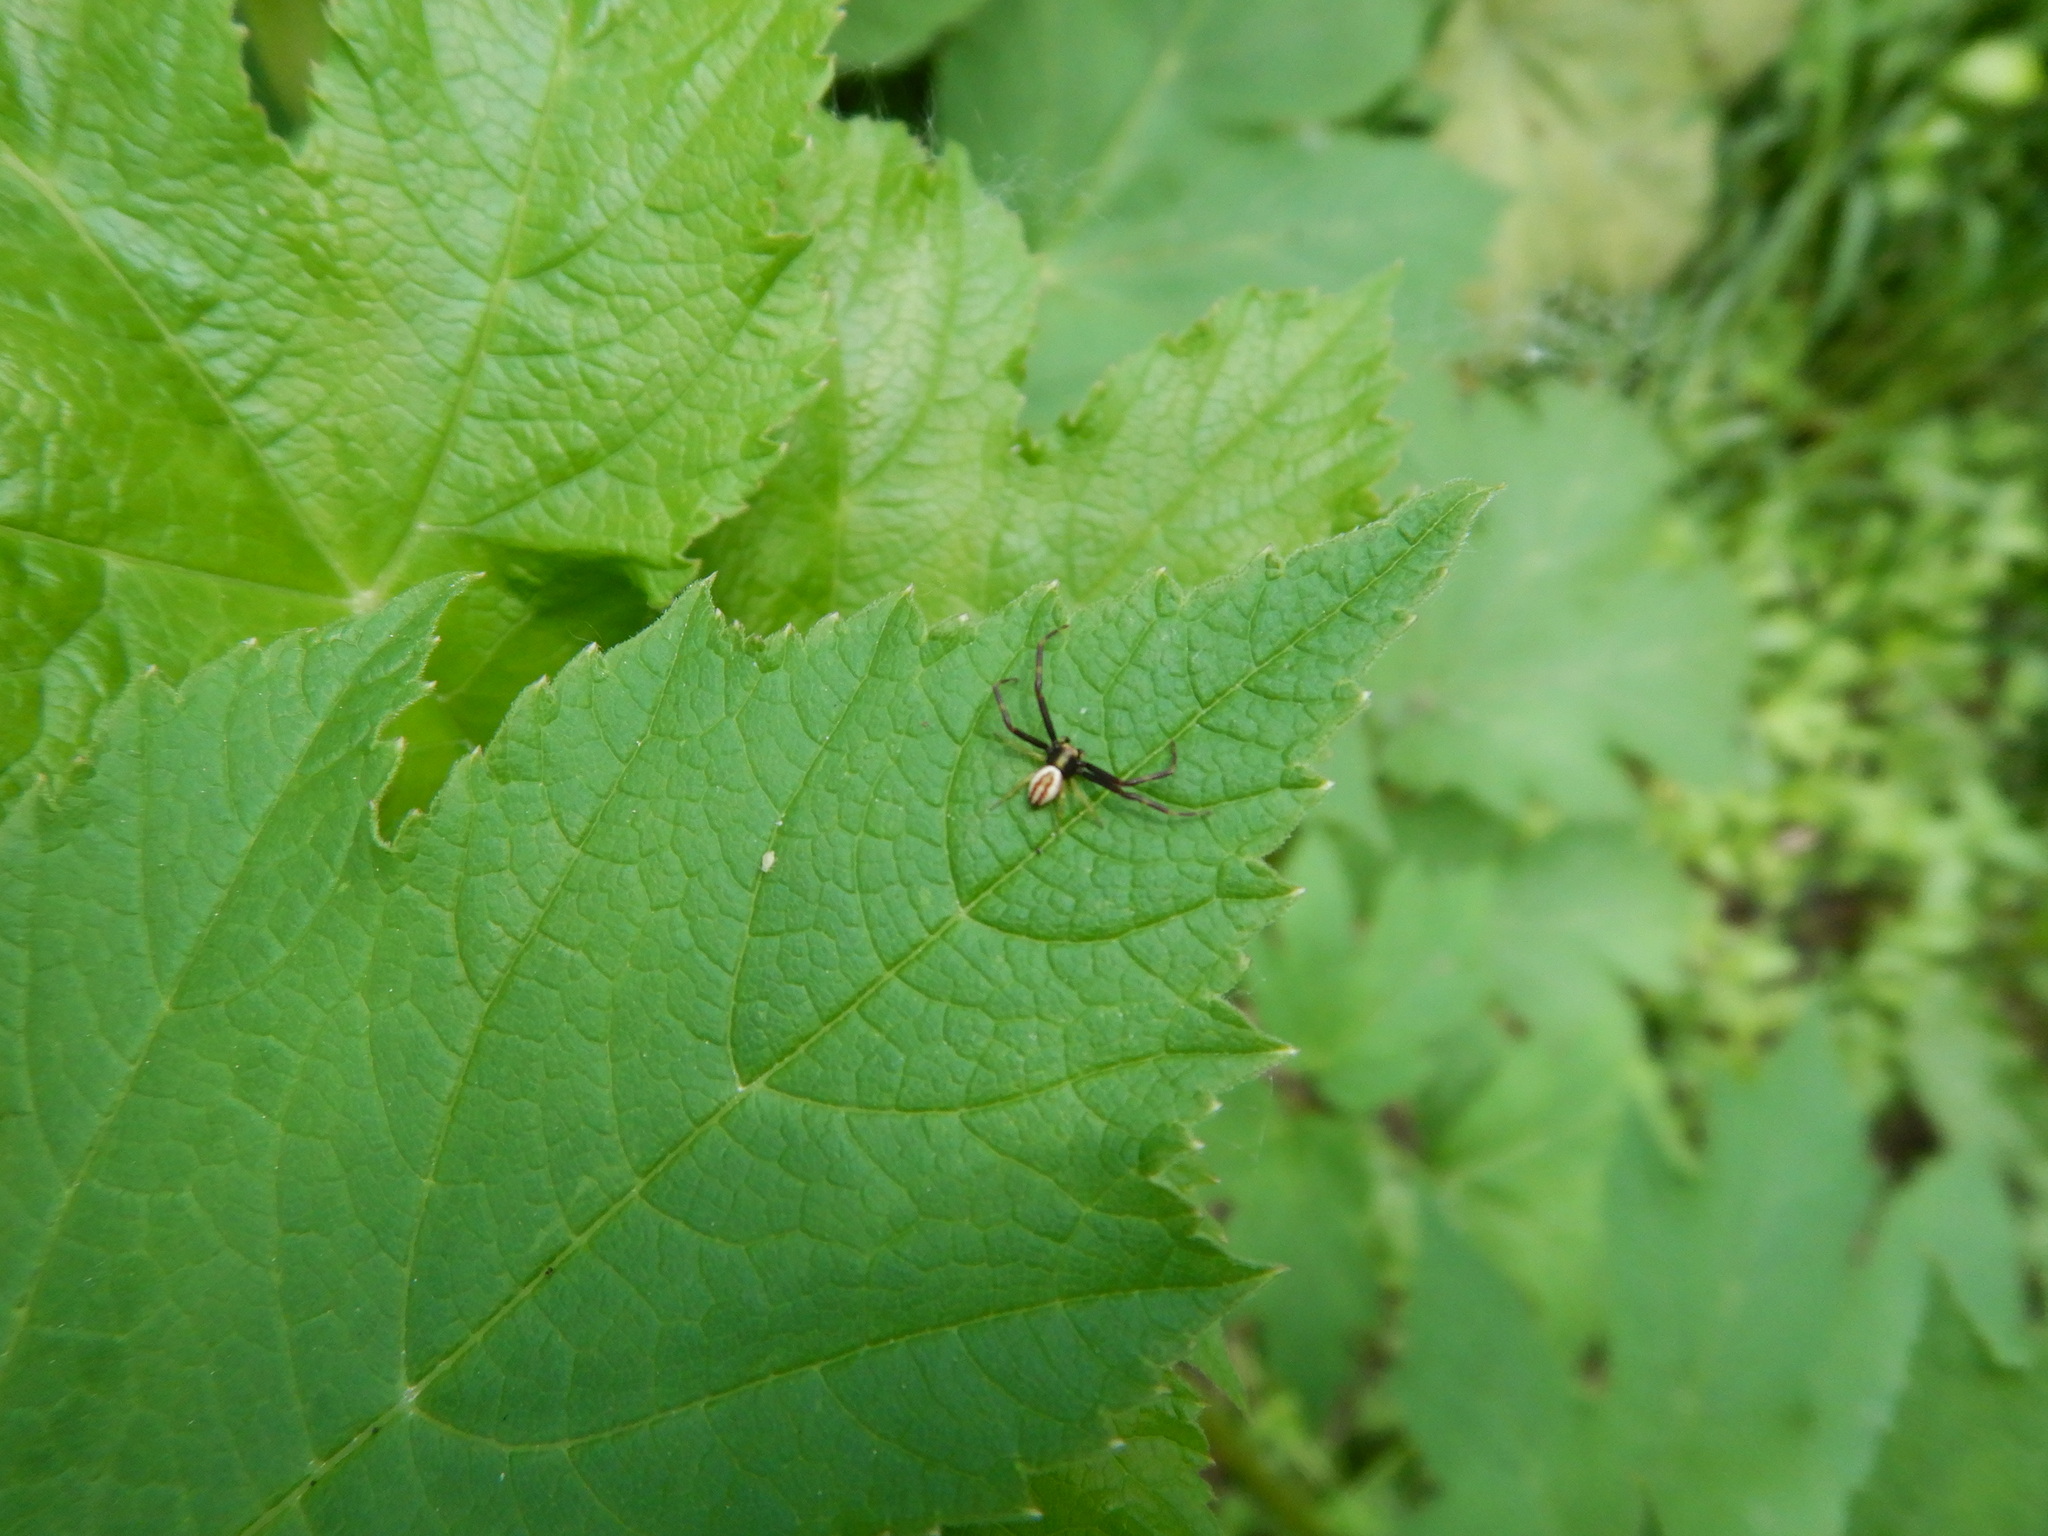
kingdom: Animalia
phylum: Arthropoda
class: Arachnida
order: Araneae
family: Thomisidae
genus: Misumena
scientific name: Misumena vatia
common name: Goldenrod crab spider
